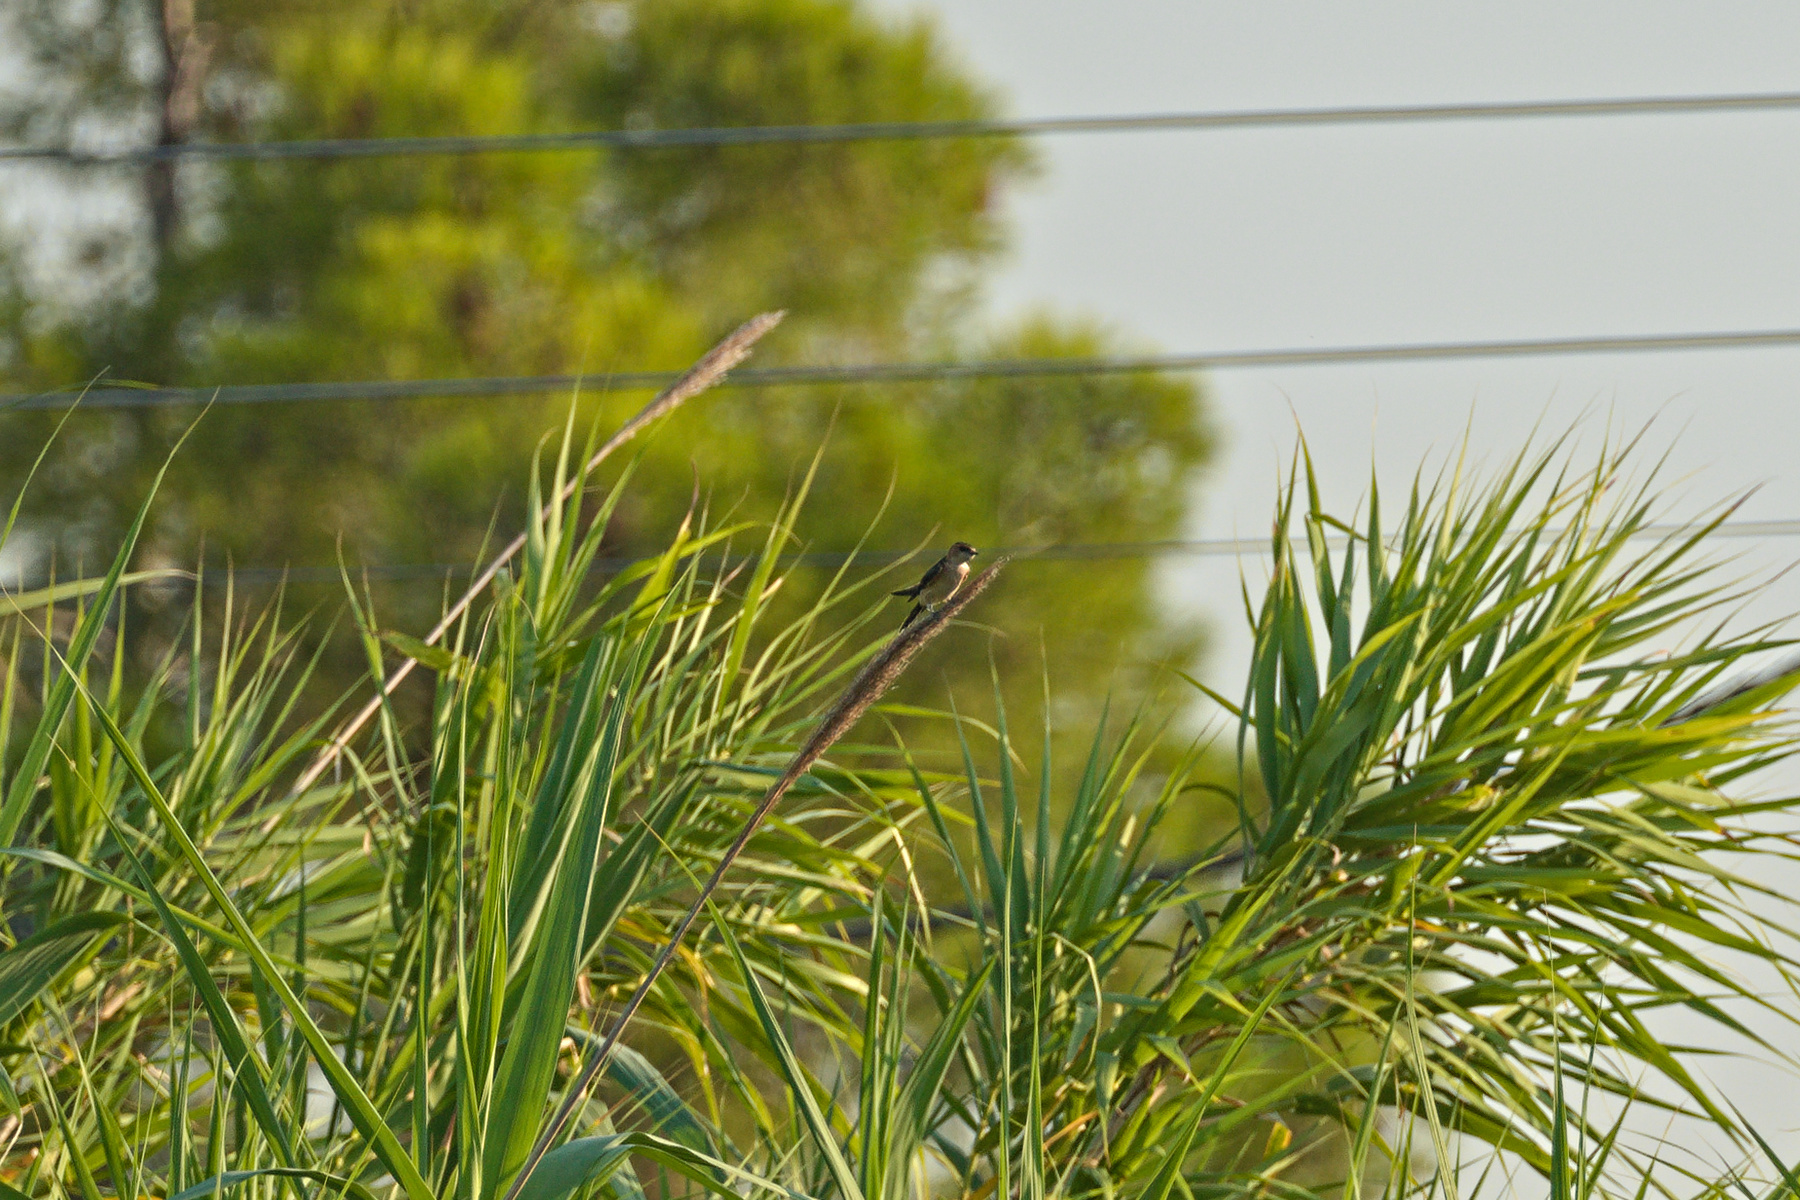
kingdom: Animalia
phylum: Chordata
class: Aves
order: Passeriformes
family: Hirundinidae
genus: Cecropis
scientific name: Cecropis daurica
